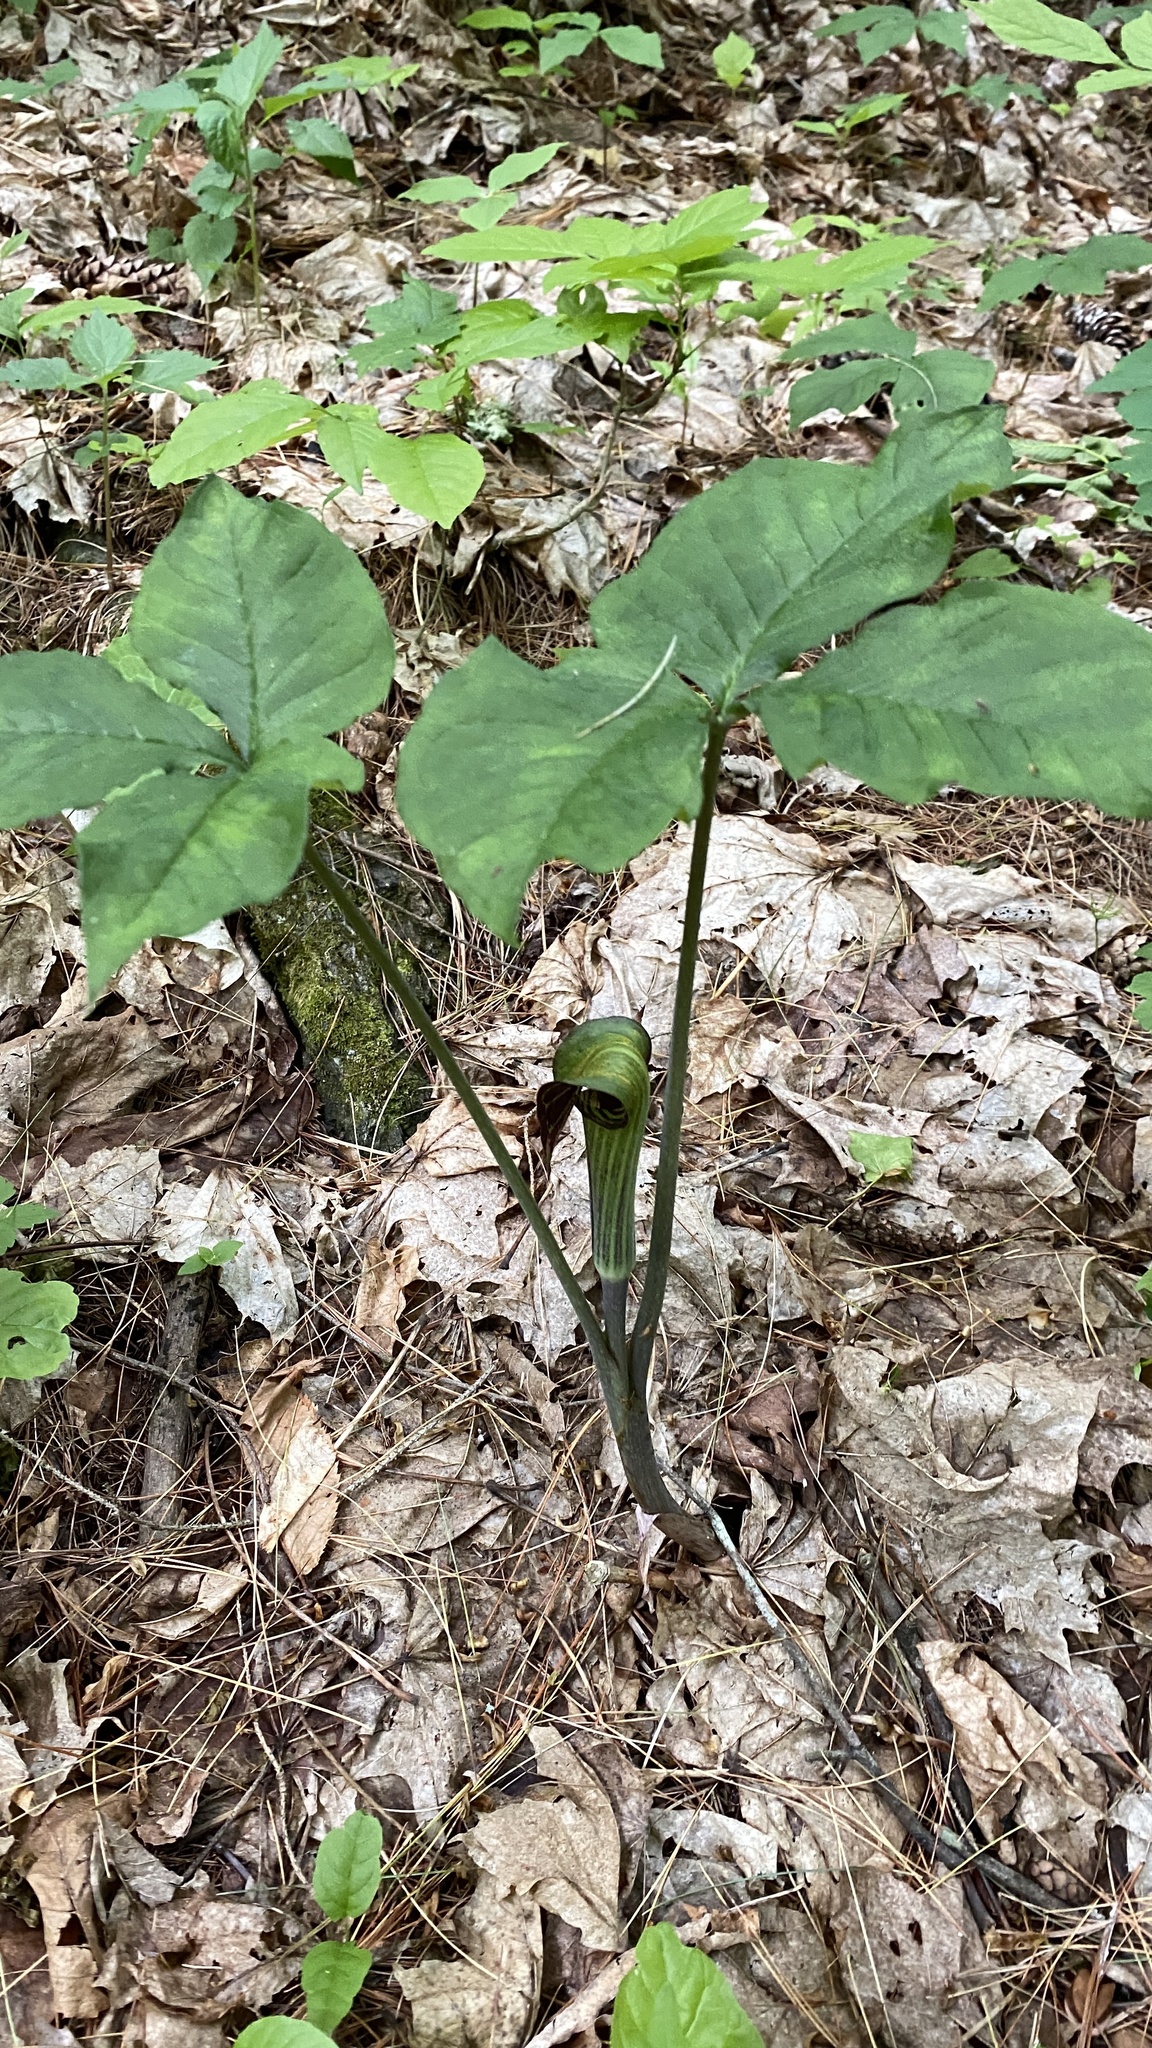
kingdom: Plantae
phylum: Tracheophyta
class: Liliopsida
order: Alismatales
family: Araceae
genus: Arisaema
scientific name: Arisaema triphyllum
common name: Jack-in-the-pulpit
